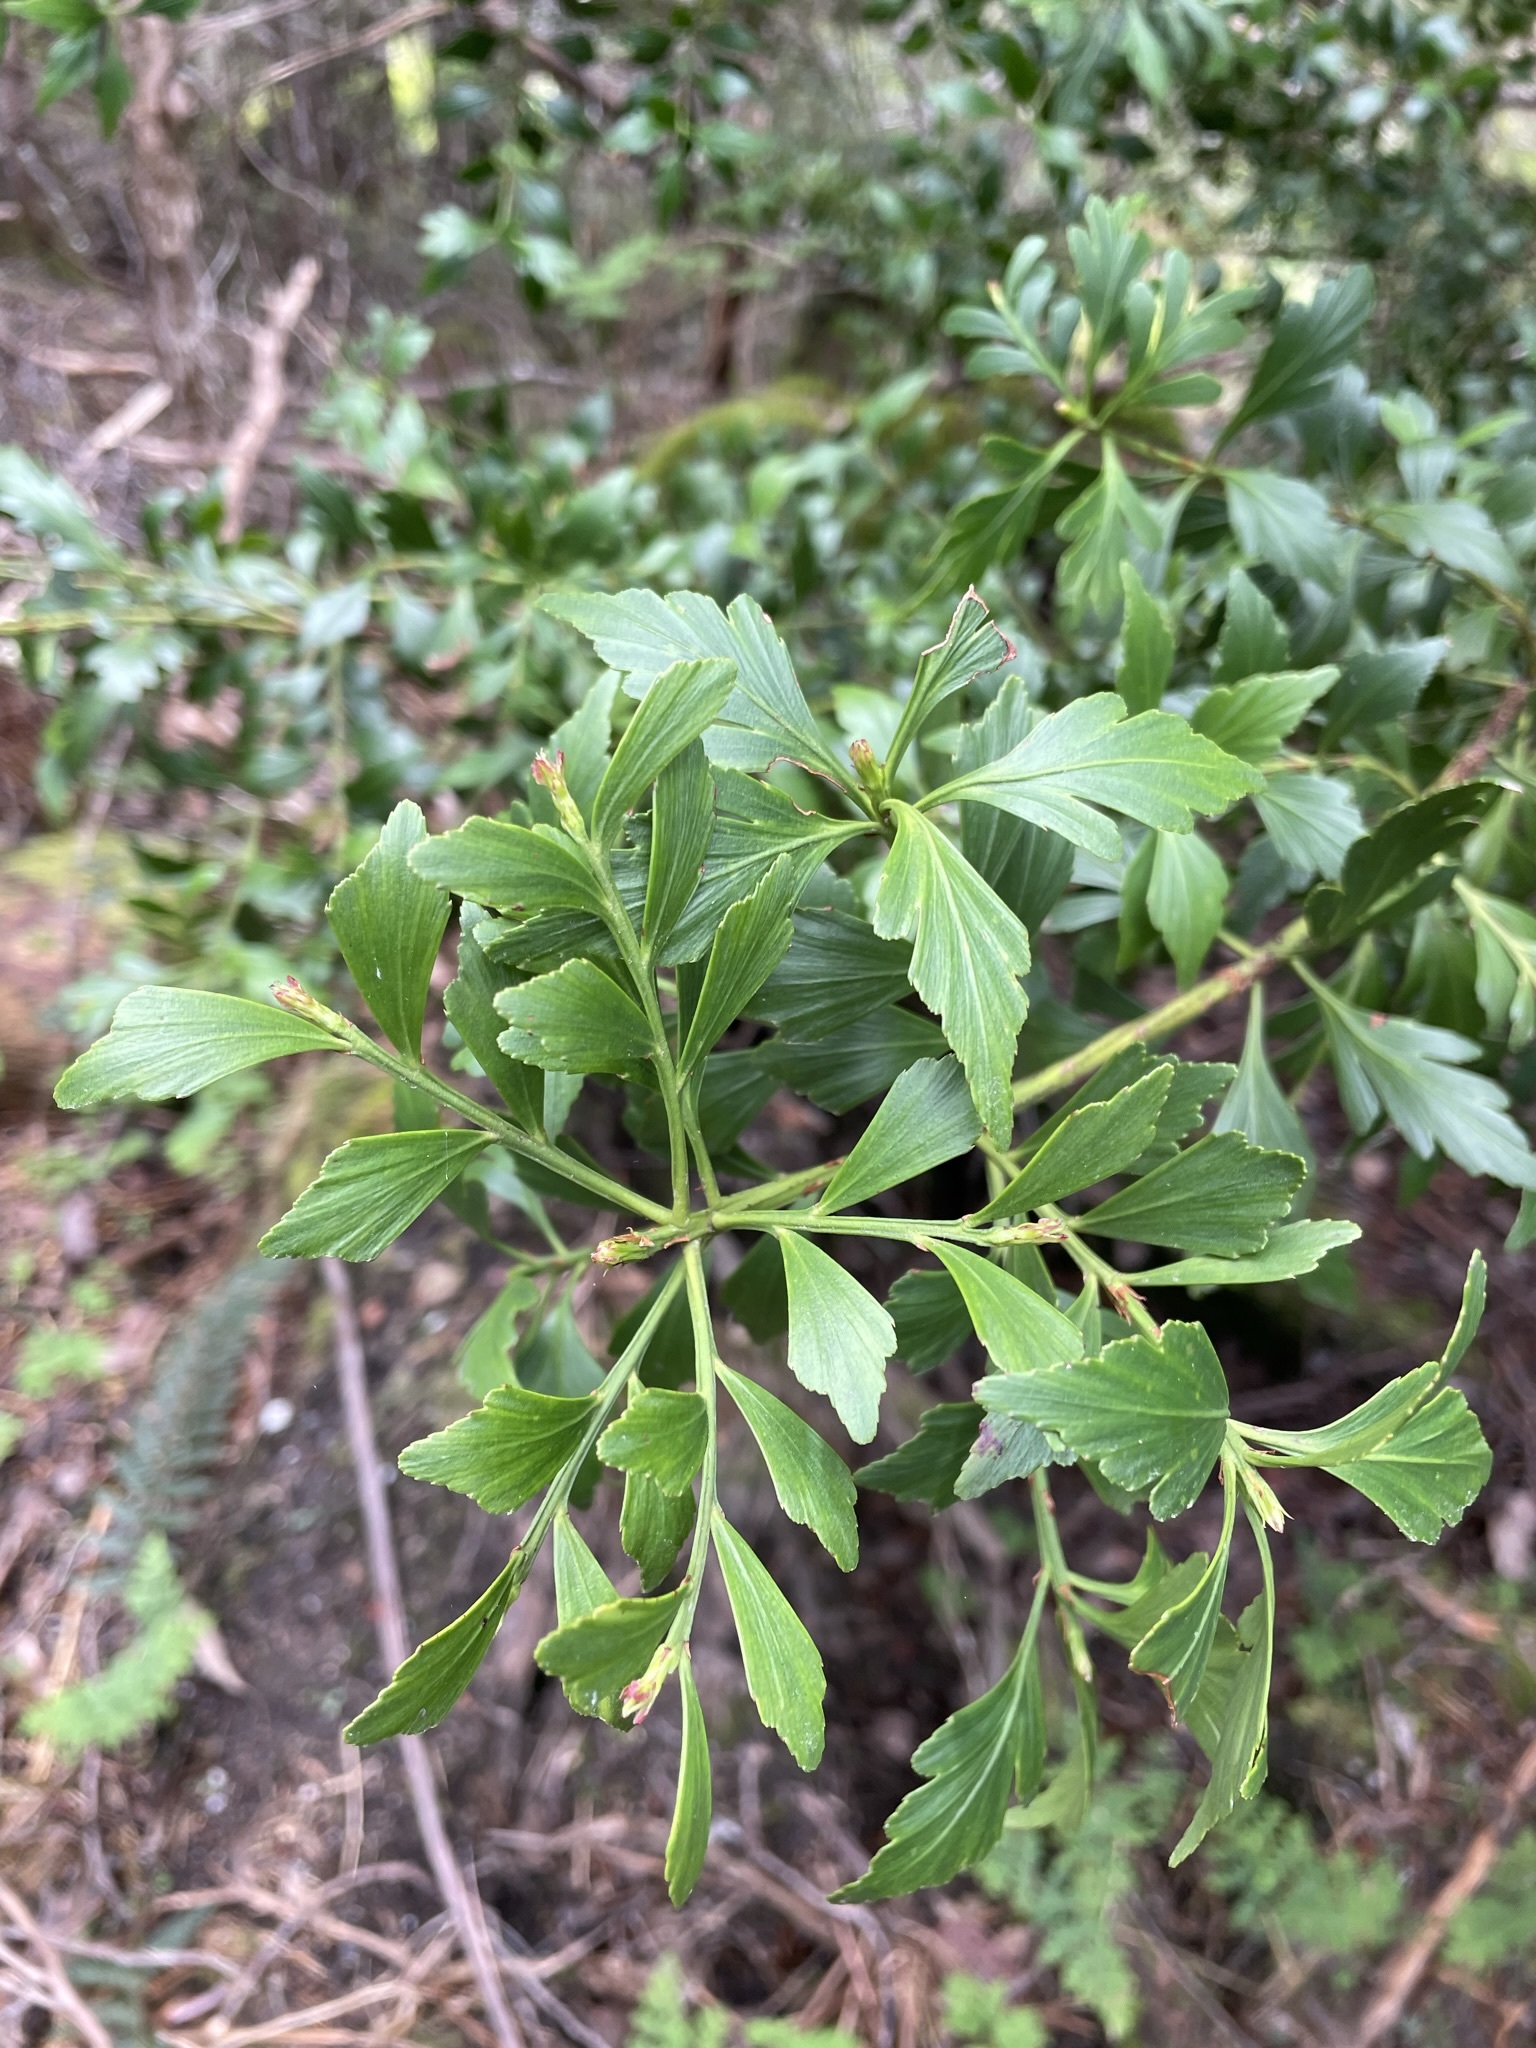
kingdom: Plantae
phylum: Tracheophyta
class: Pinopsida
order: Pinales
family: Phyllocladaceae
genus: Phyllocladus
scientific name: Phyllocladus aspleniifolius
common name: Celery-top pine
